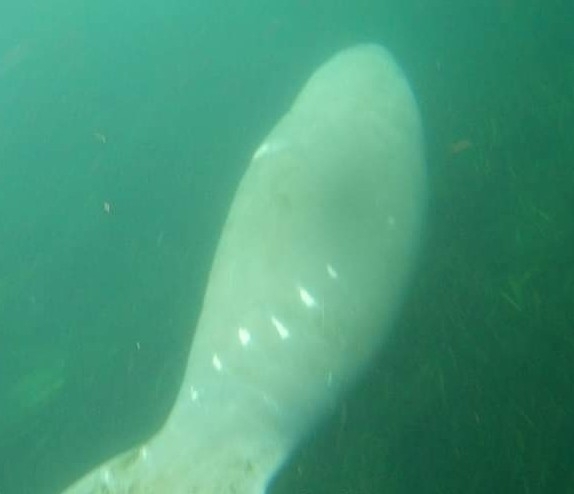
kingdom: Animalia
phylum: Chordata
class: Mammalia
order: Sirenia
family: Trichechidae
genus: Trichechus
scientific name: Trichechus manatus
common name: West indian manatee
